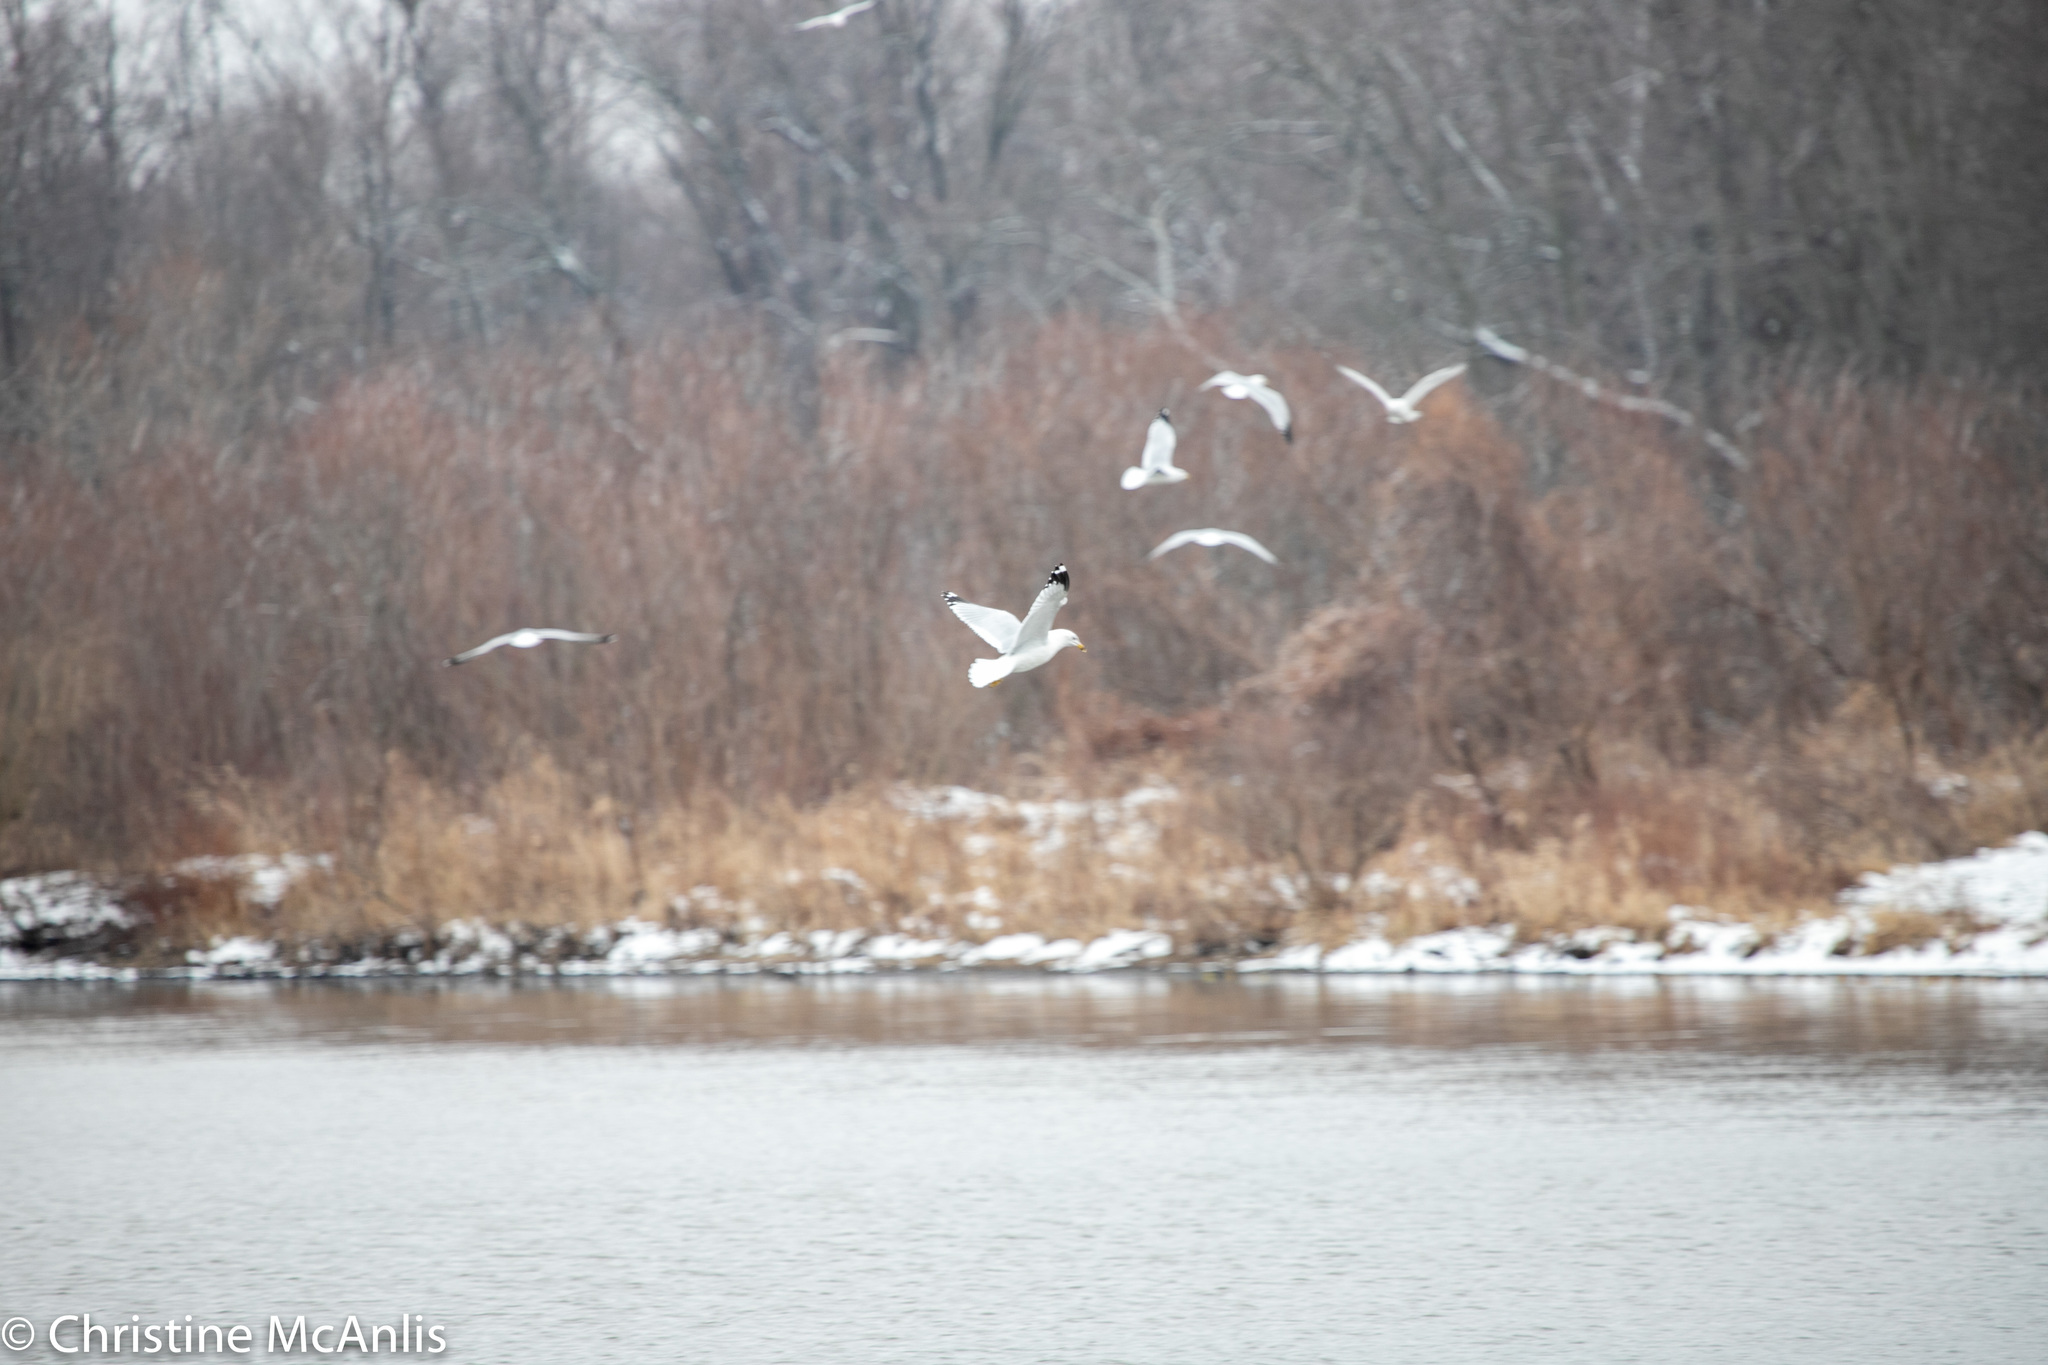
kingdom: Animalia
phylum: Chordata
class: Aves
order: Charadriiformes
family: Laridae
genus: Larus
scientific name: Larus delawarensis
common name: Ring-billed gull
